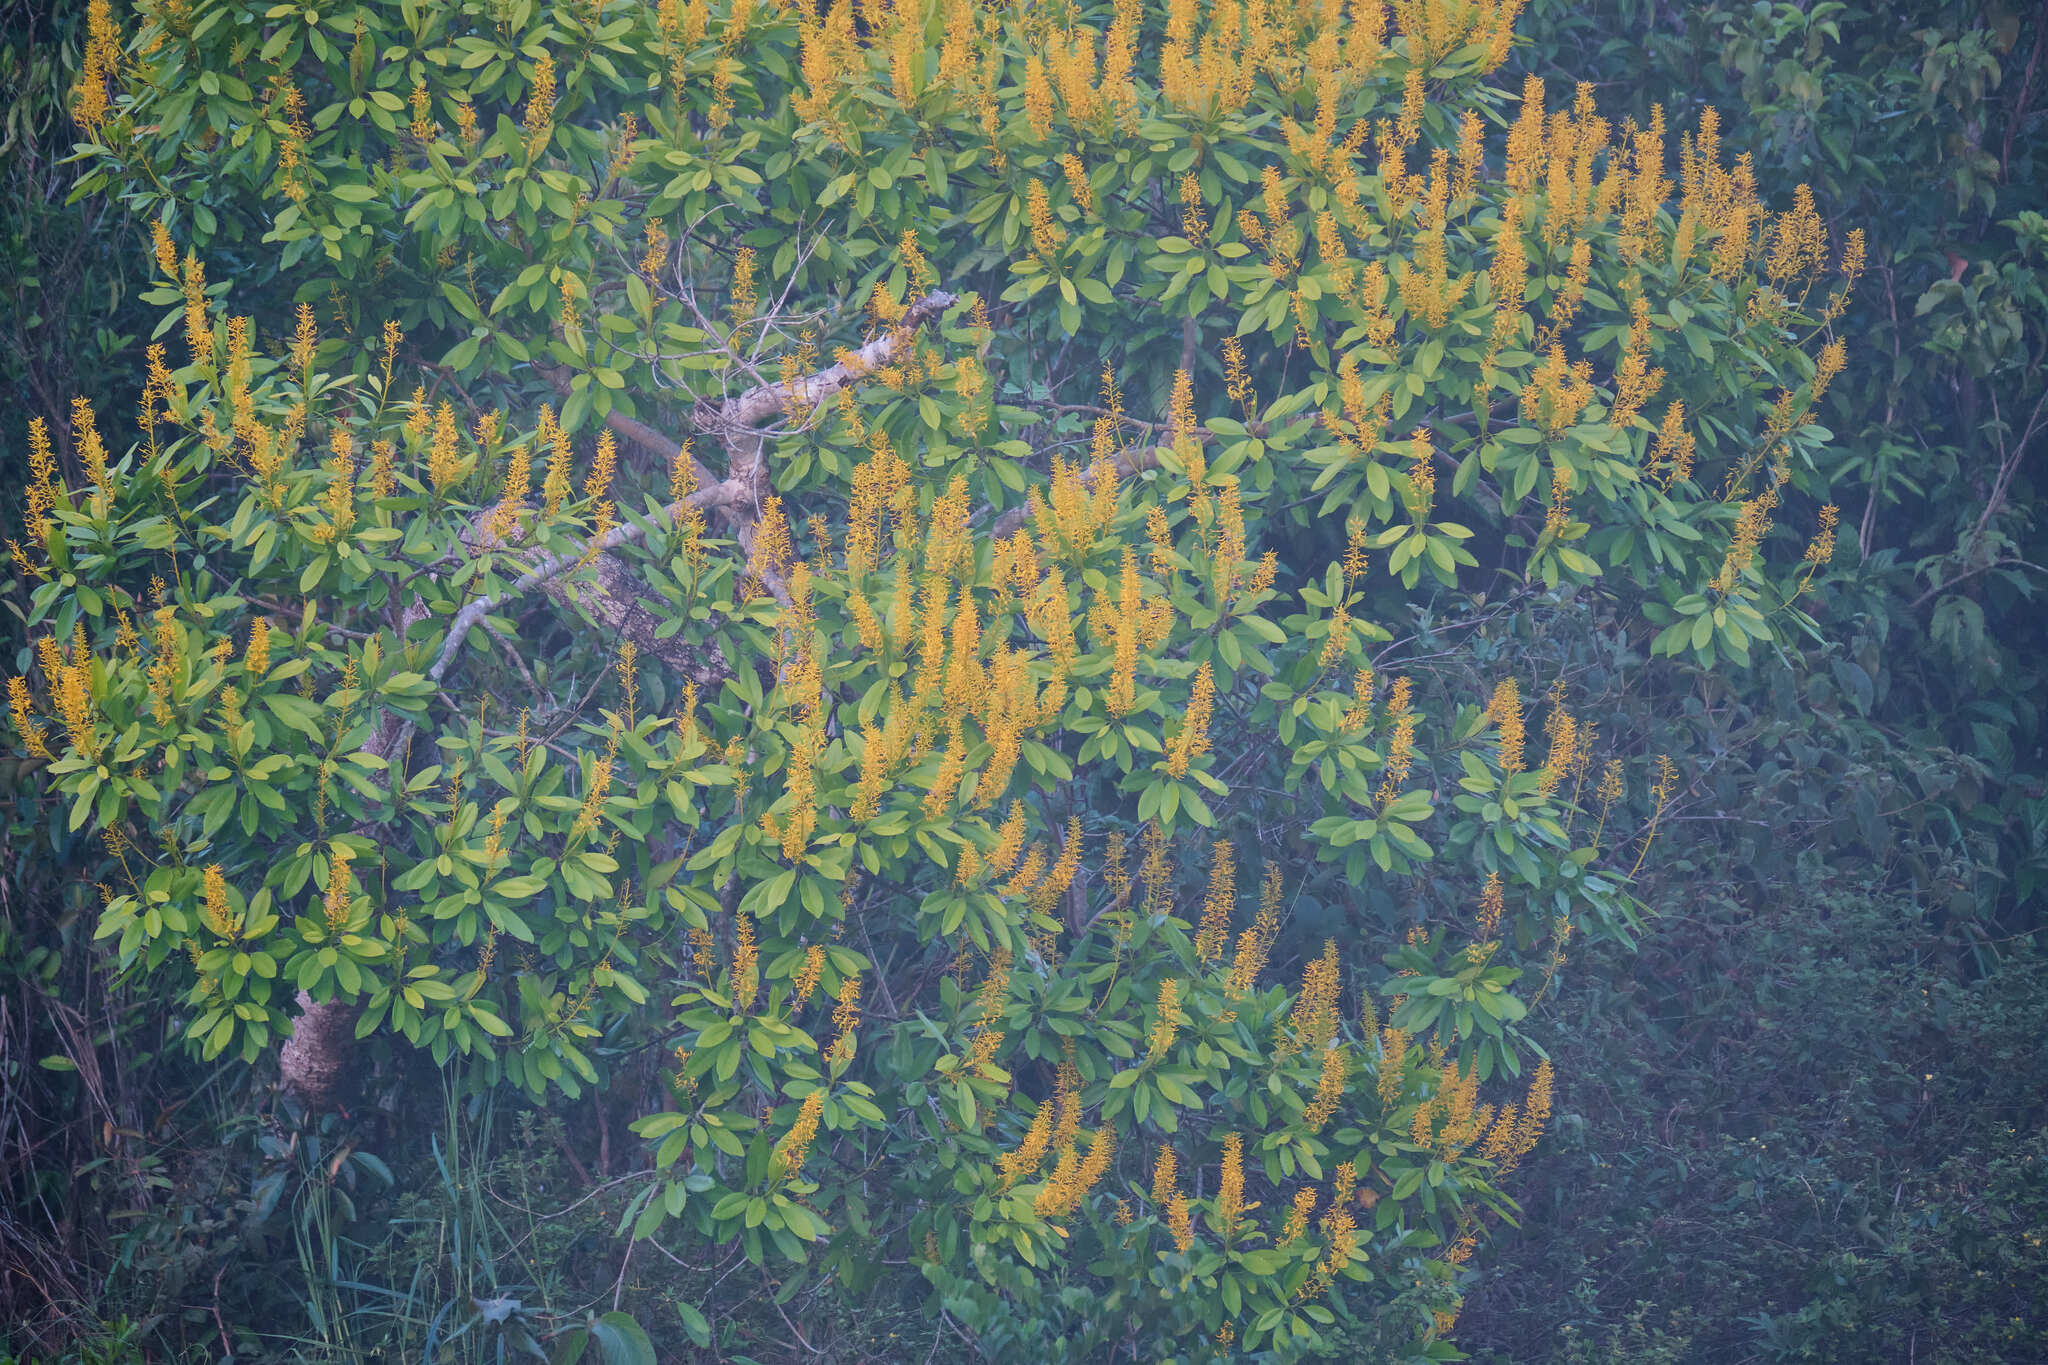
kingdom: Plantae
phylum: Tracheophyta
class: Magnoliopsida
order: Myrtales
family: Vochysiaceae
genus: Vochysia
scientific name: Vochysia guatemalensis
